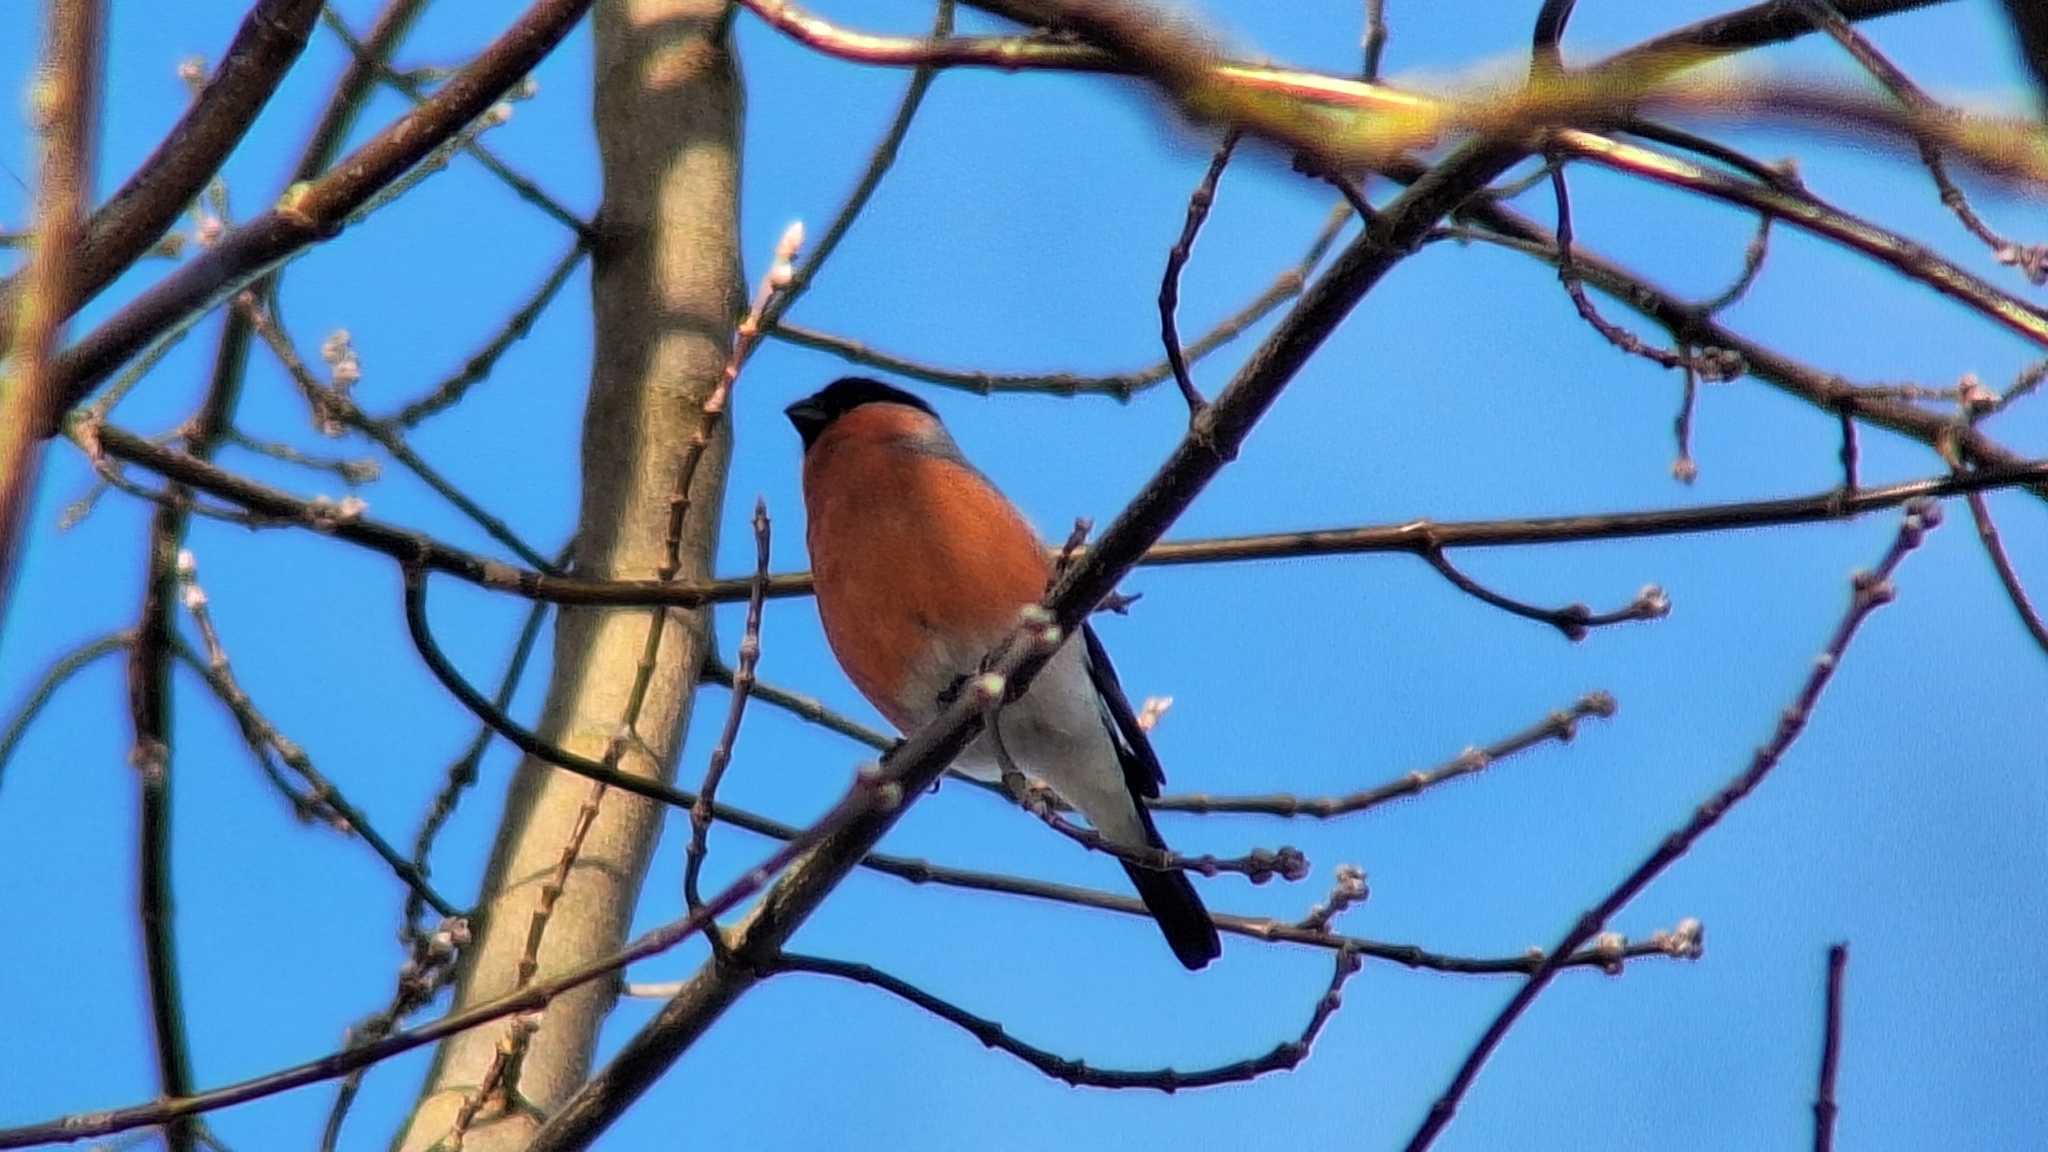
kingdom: Animalia
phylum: Chordata
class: Aves
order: Passeriformes
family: Fringillidae
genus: Pyrrhula
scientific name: Pyrrhula pyrrhula
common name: Eurasian bullfinch
